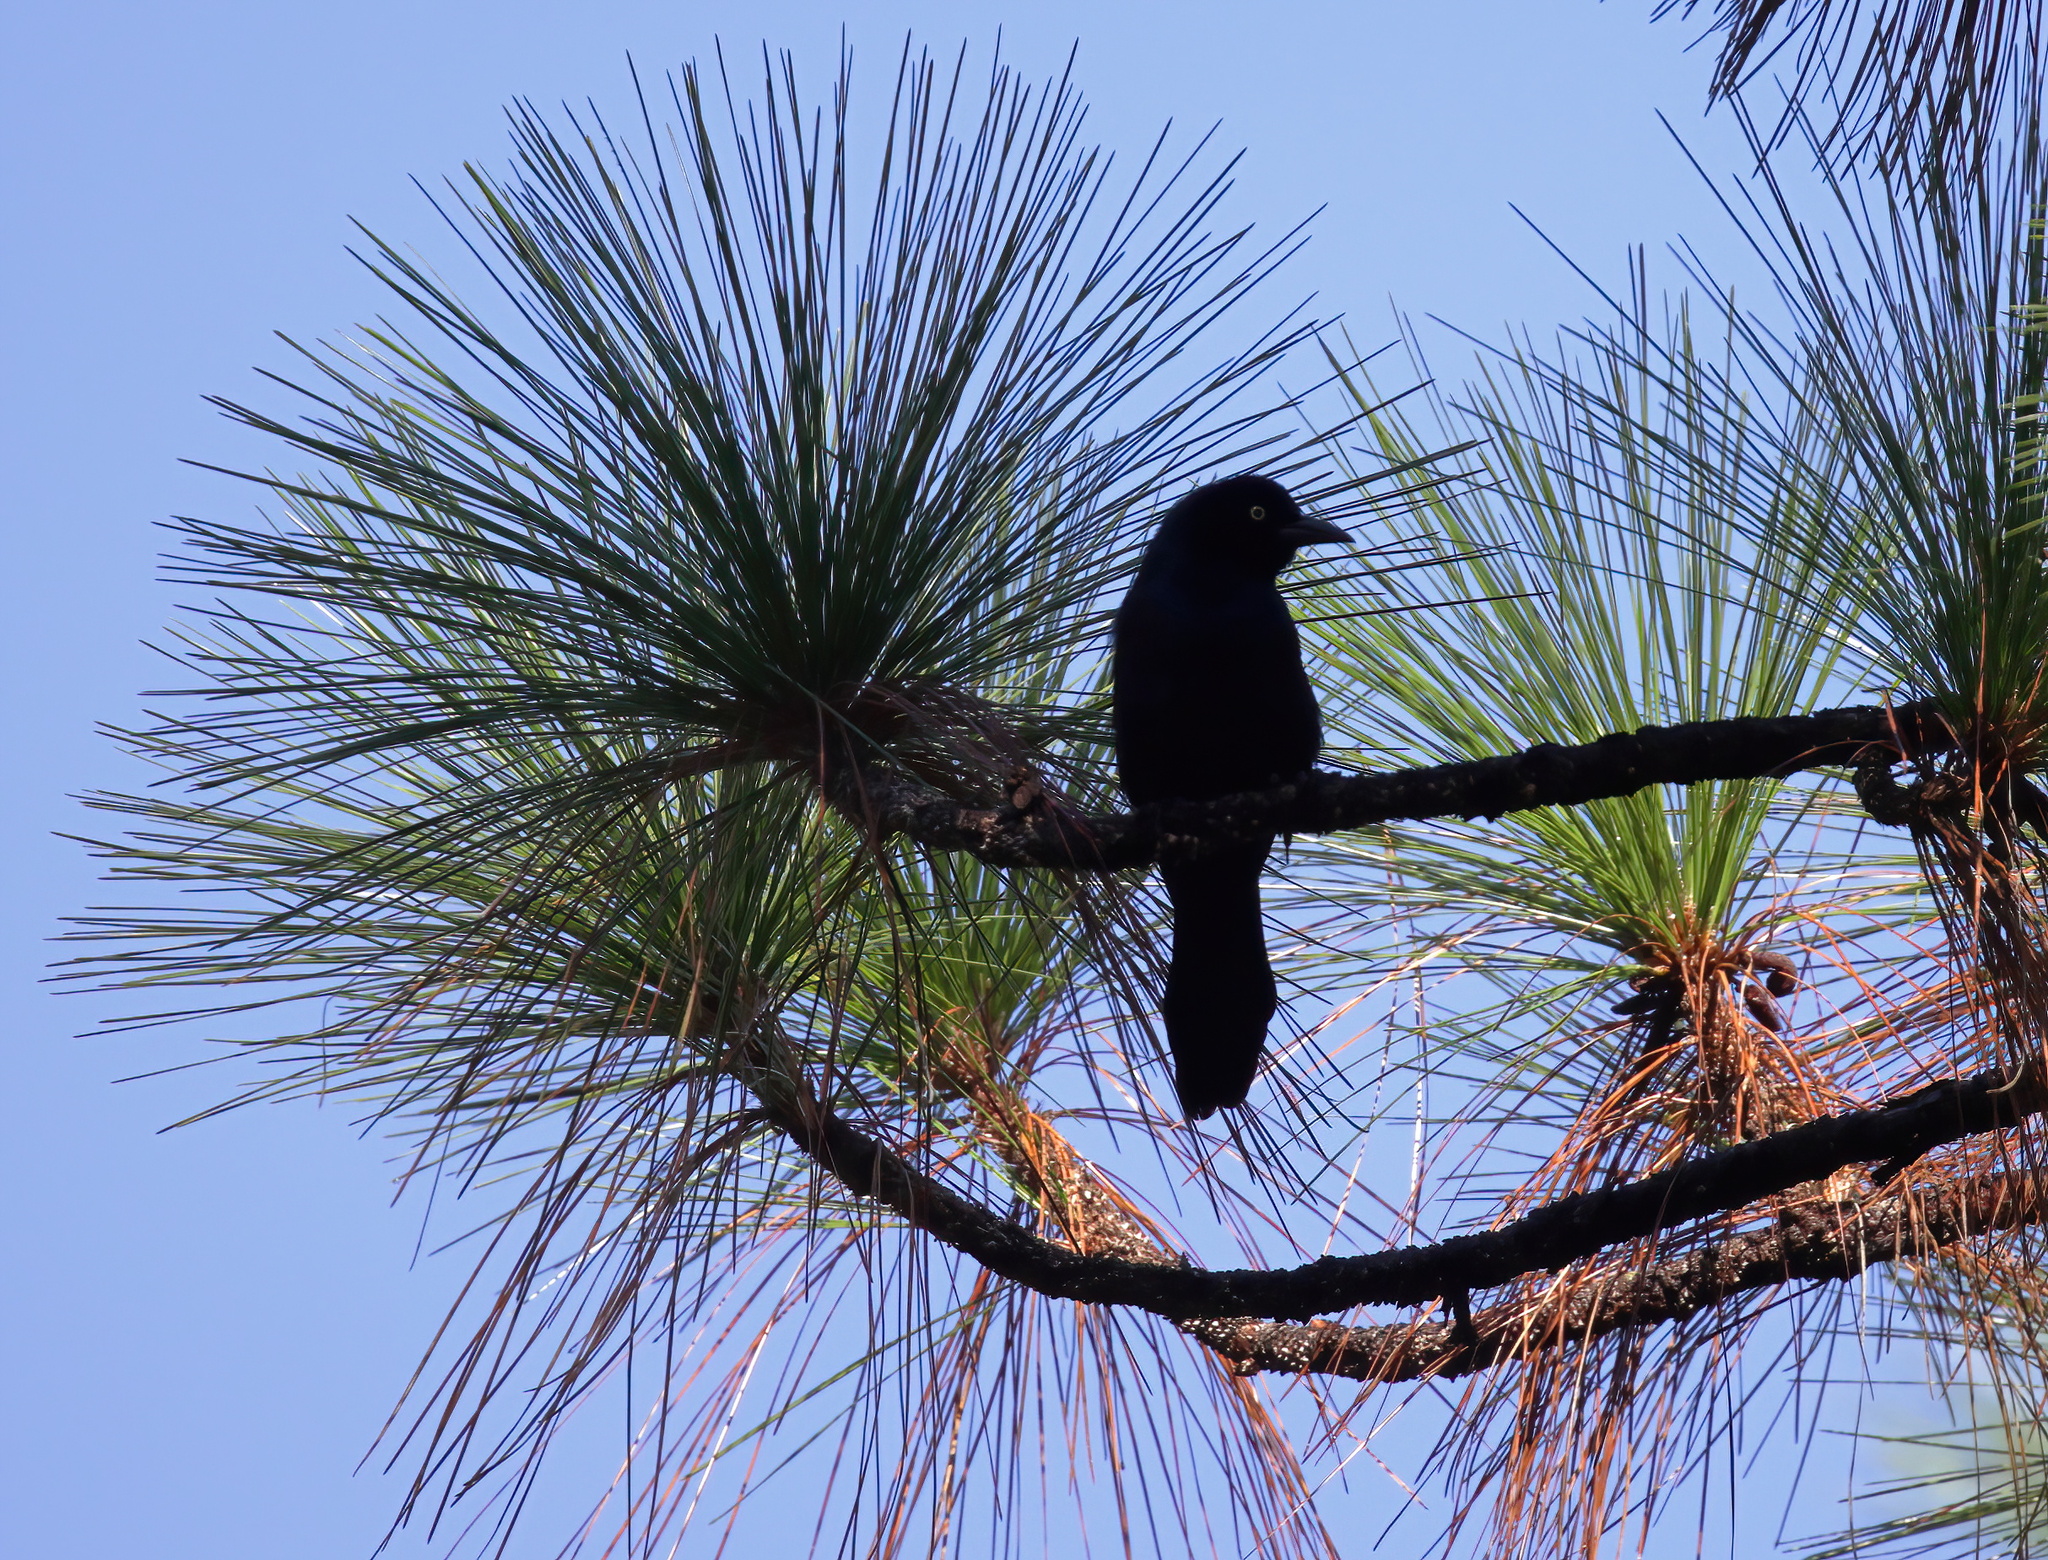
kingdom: Animalia
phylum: Chordata
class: Aves
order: Passeriformes
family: Icteridae
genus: Quiscalus
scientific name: Quiscalus quiscula
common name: Common grackle
